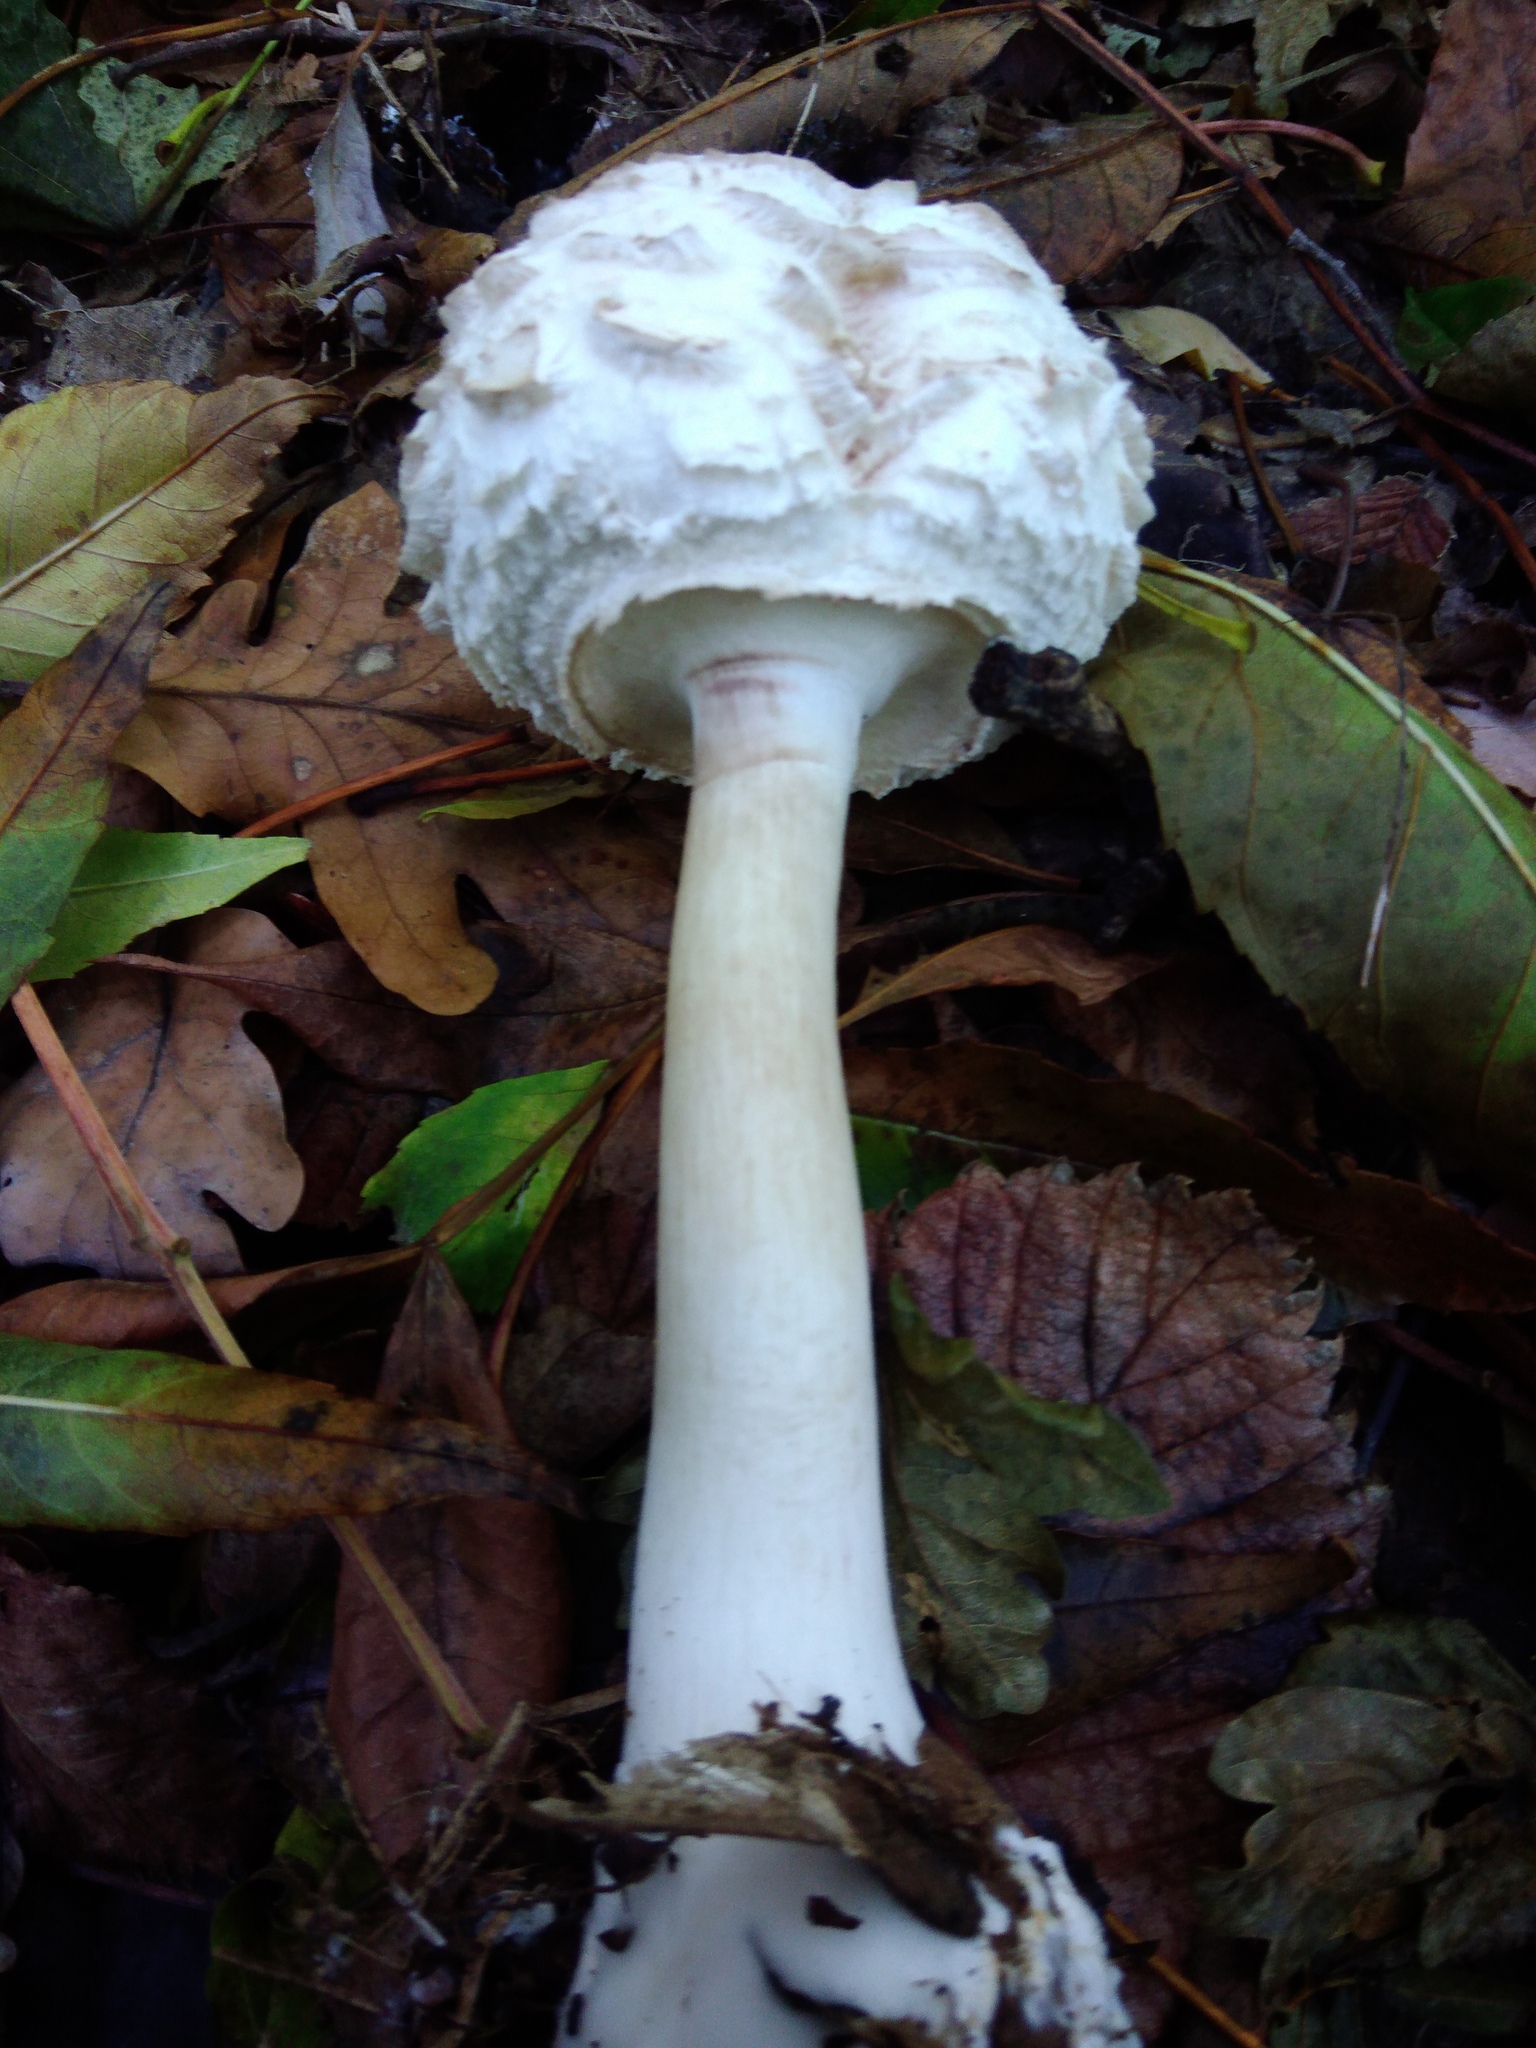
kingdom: Fungi
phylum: Basidiomycota
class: Agaricomycetes
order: Agaricales
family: Agaricaceae
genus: Chlorophyllum
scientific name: Chlorophyllum rhacodes
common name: Shaggy parasol
